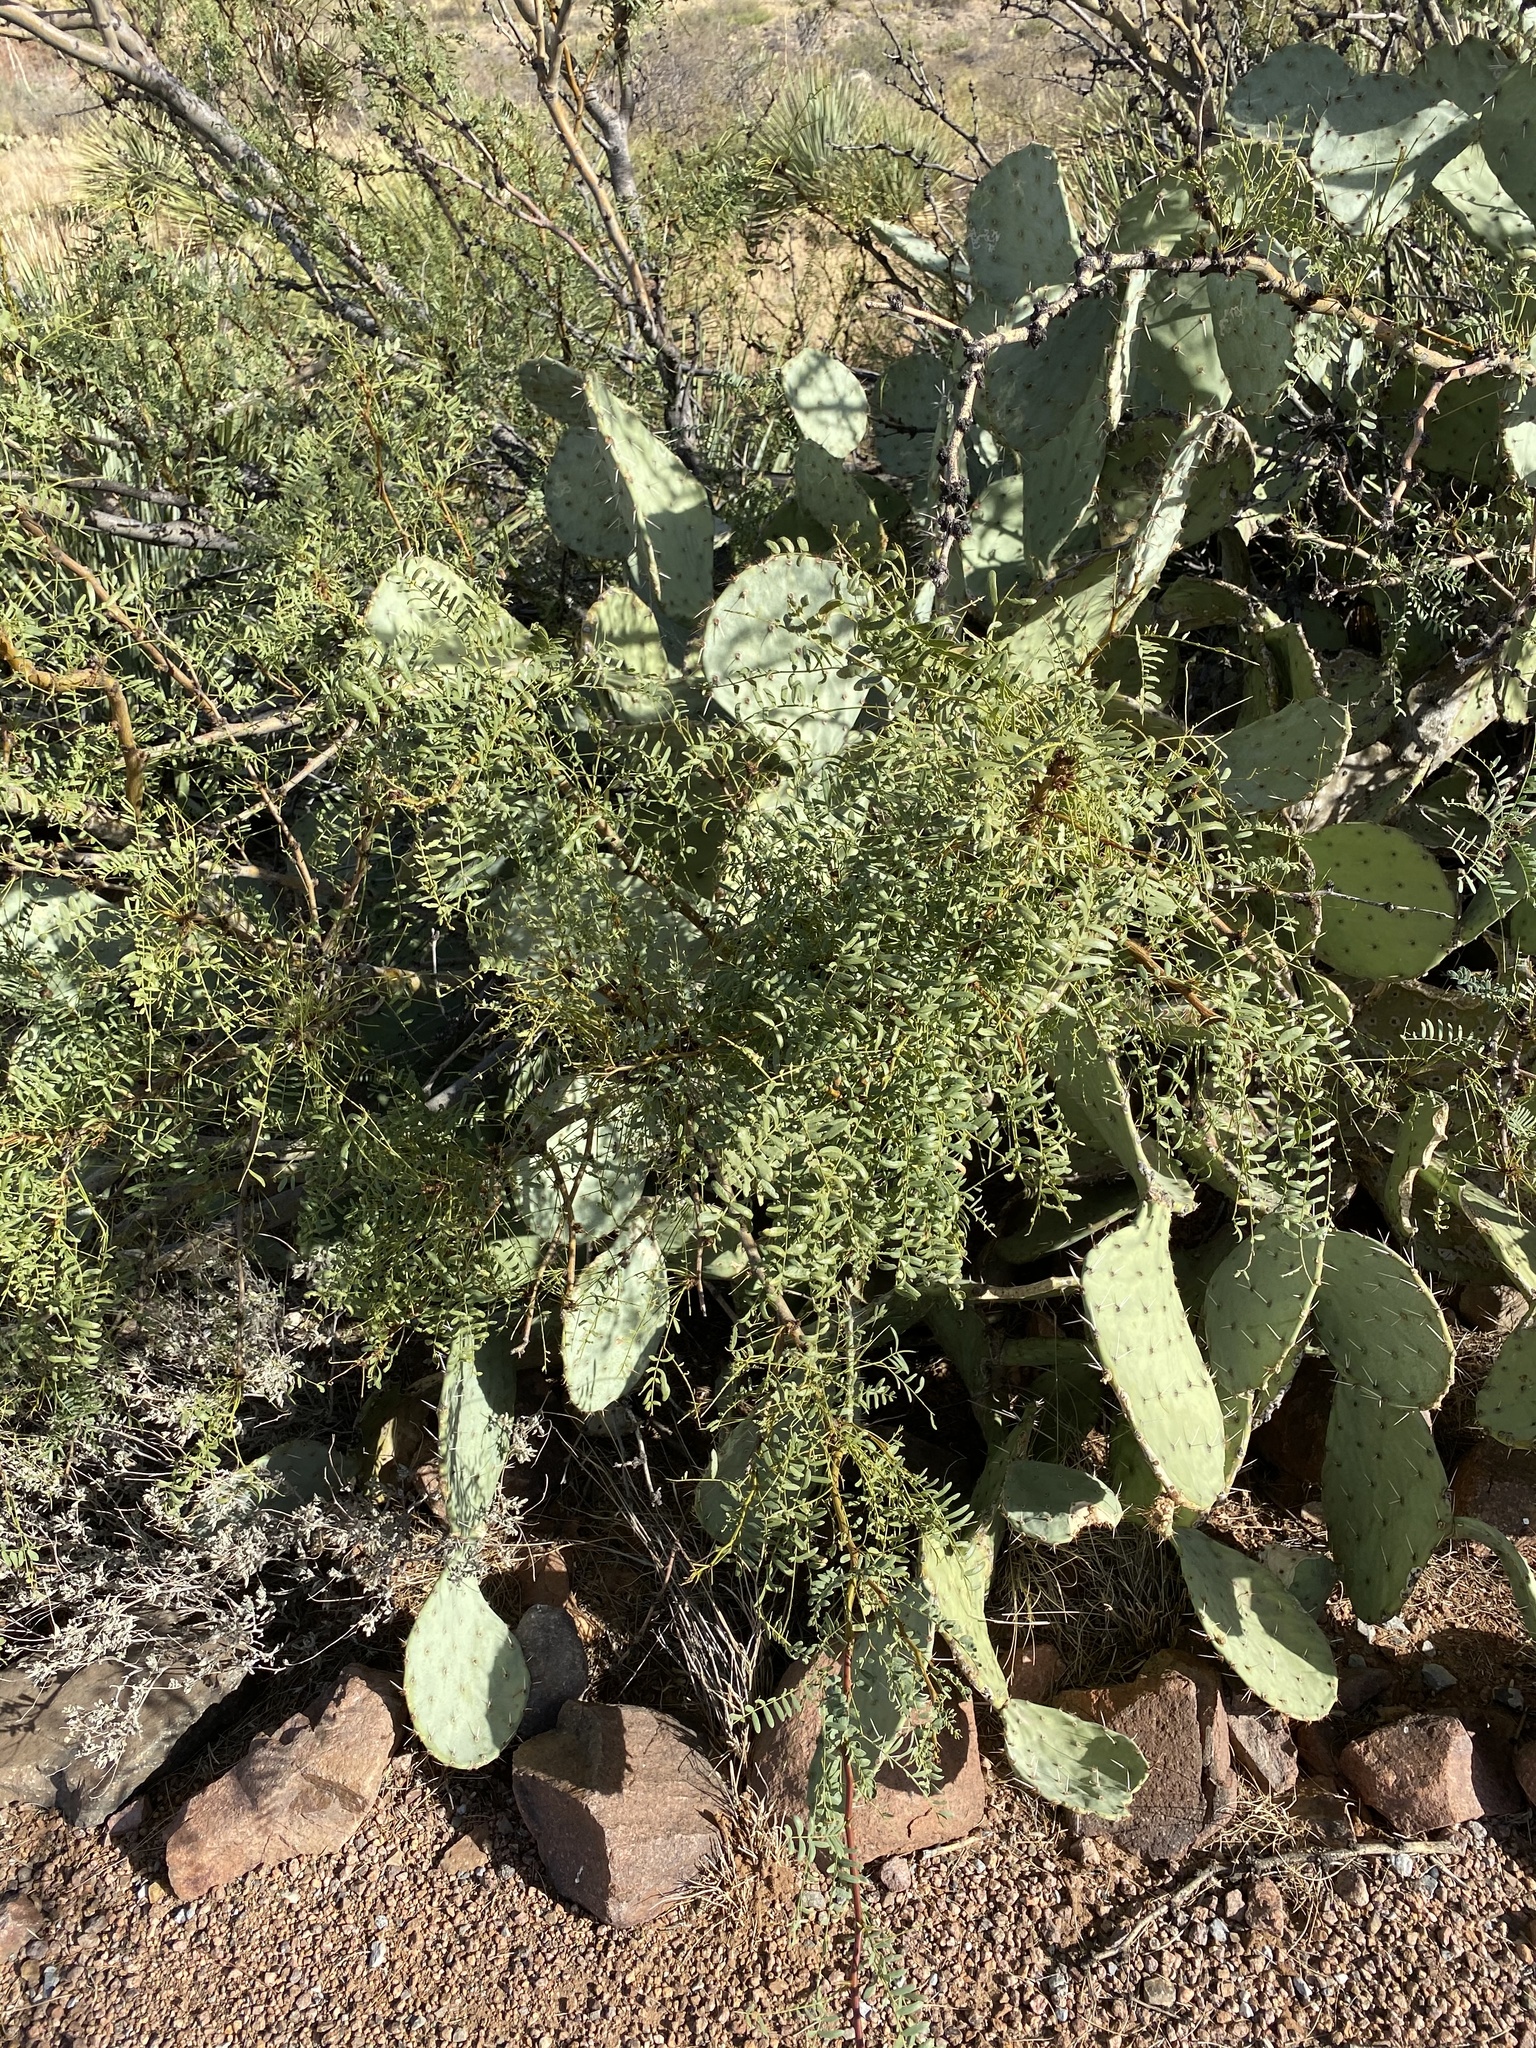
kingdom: Plantae
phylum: Tracheophyta
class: Magnoliopsida
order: Caryophyllales
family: Cactaceae
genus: Opuntia
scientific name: Opuntia engelmannii
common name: Cactus-apple
